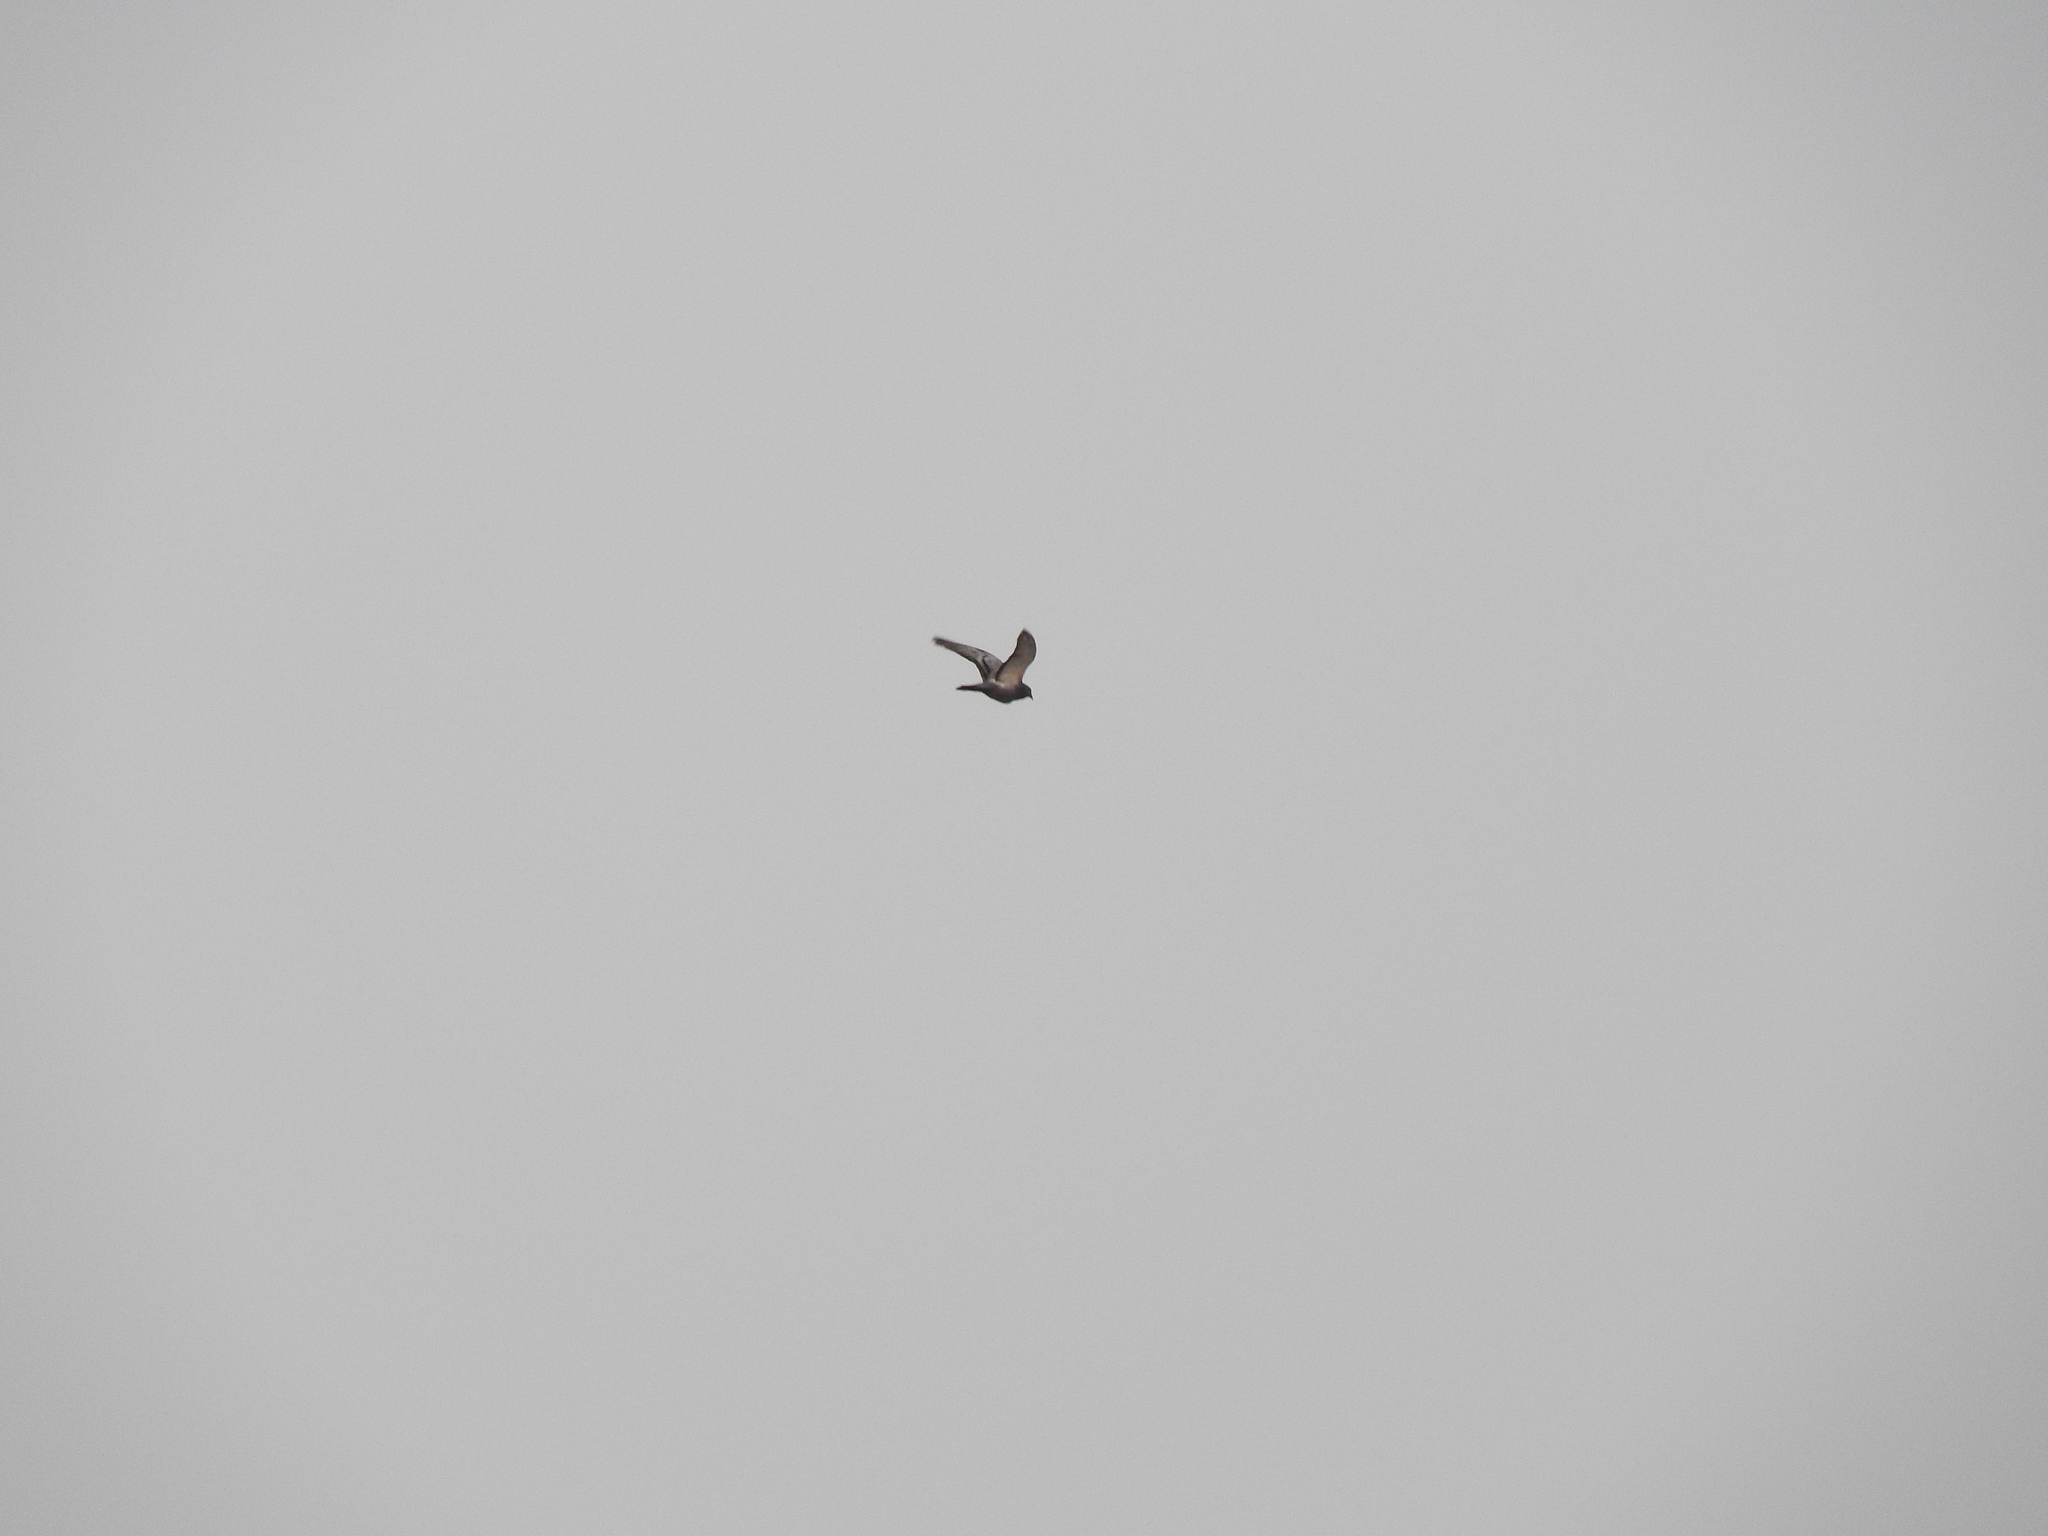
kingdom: Animalia
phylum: Chordata
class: Aves
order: Columbiformes
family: Columbidae
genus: Columba
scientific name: Columba livia
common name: Rock pigeon
